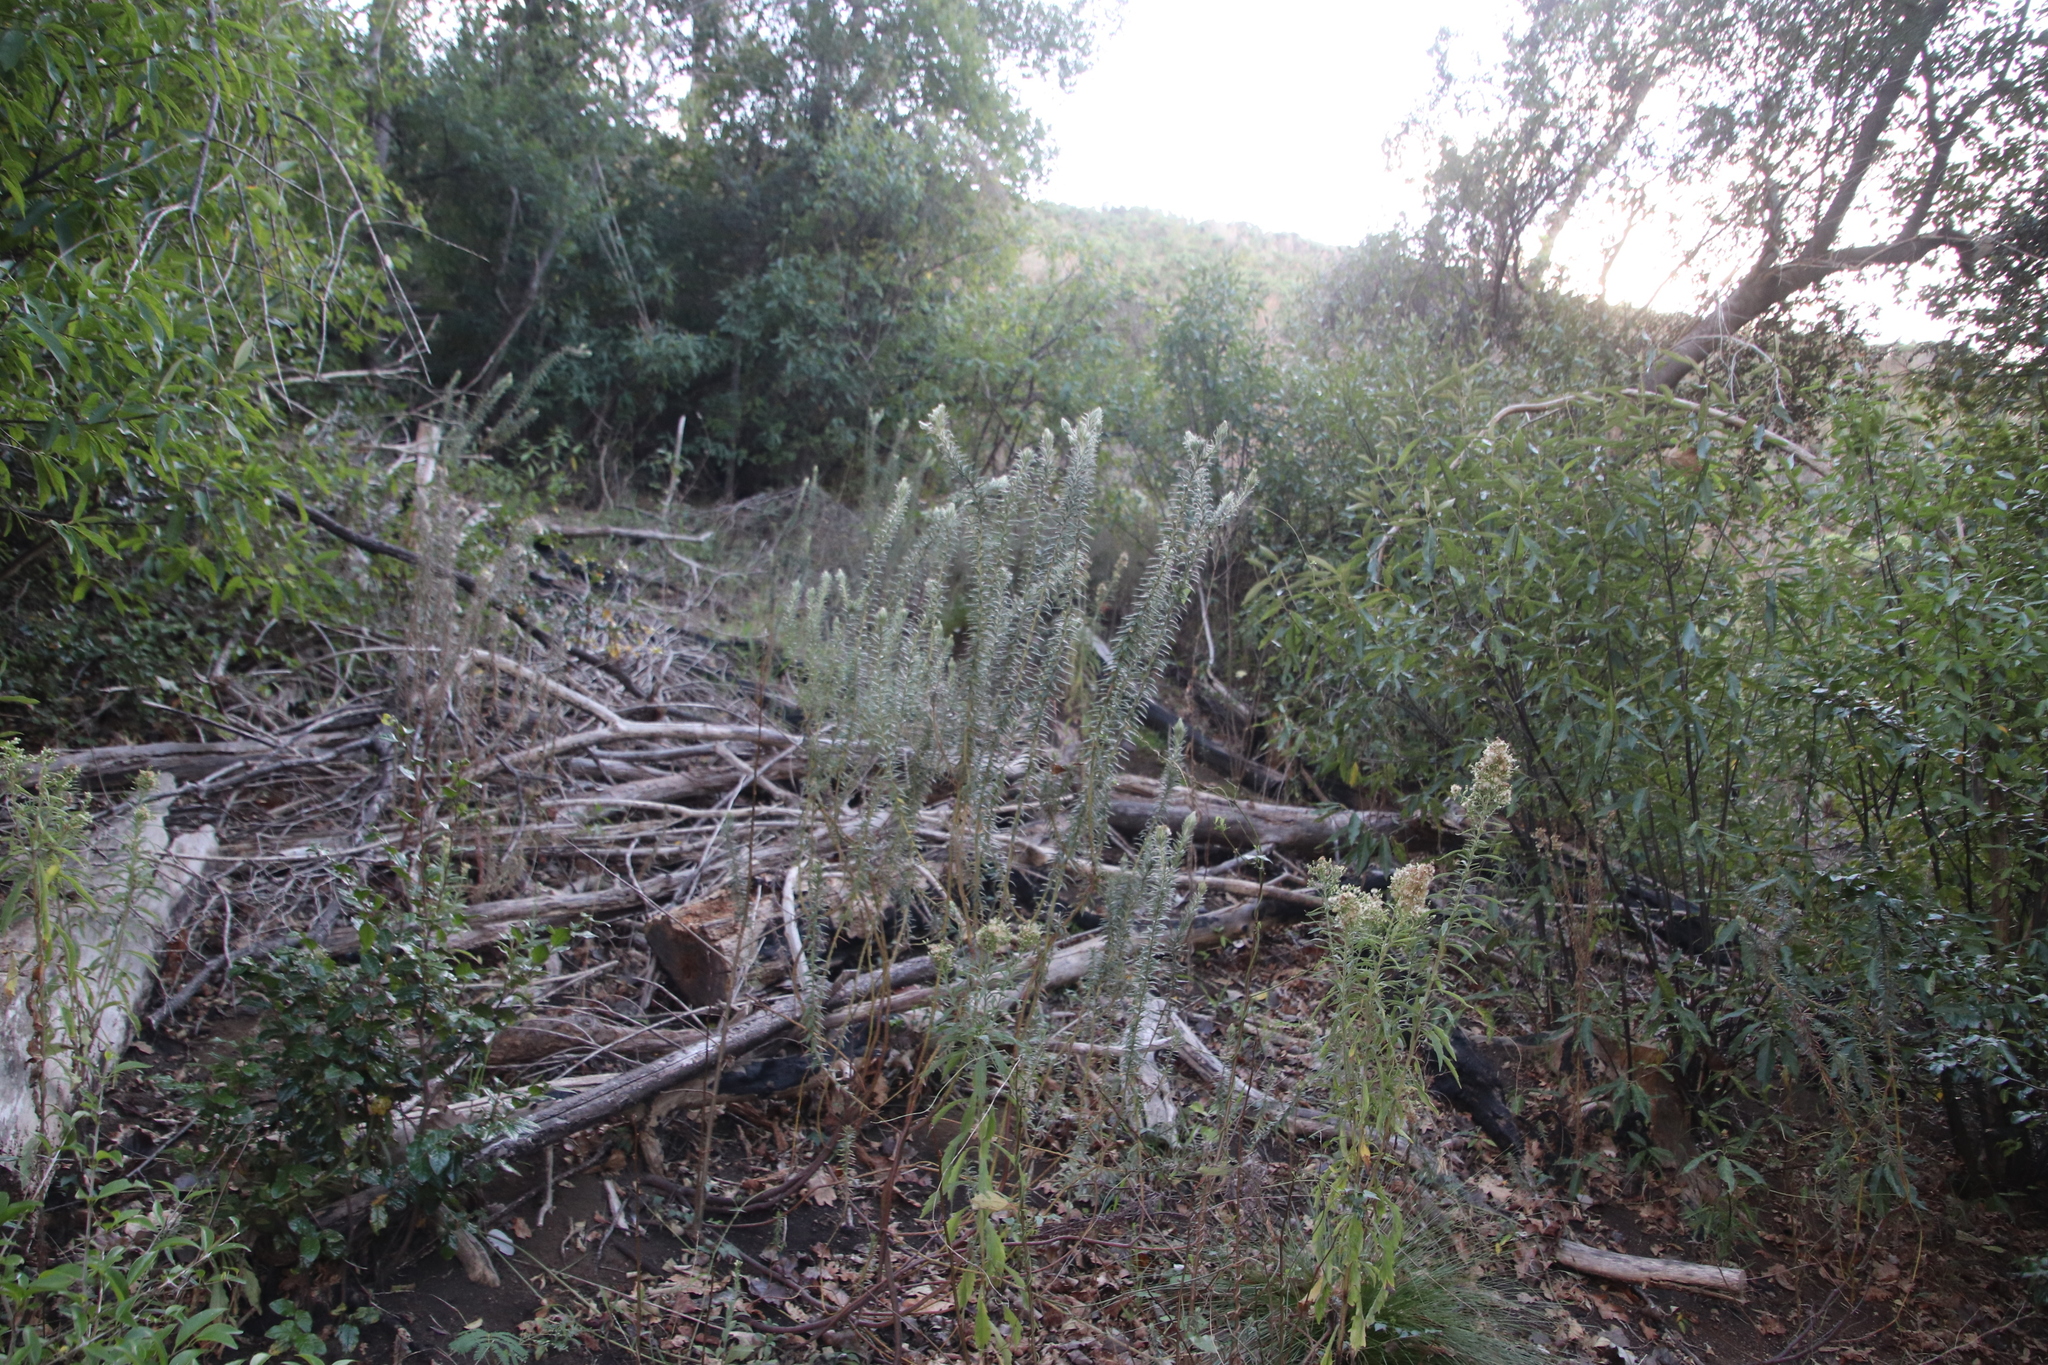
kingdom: Plantae
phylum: Tracheophyta
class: Magnoliopsida
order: Rosales
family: Rhamnaceae
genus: Phylica
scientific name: Phylica pubescens
